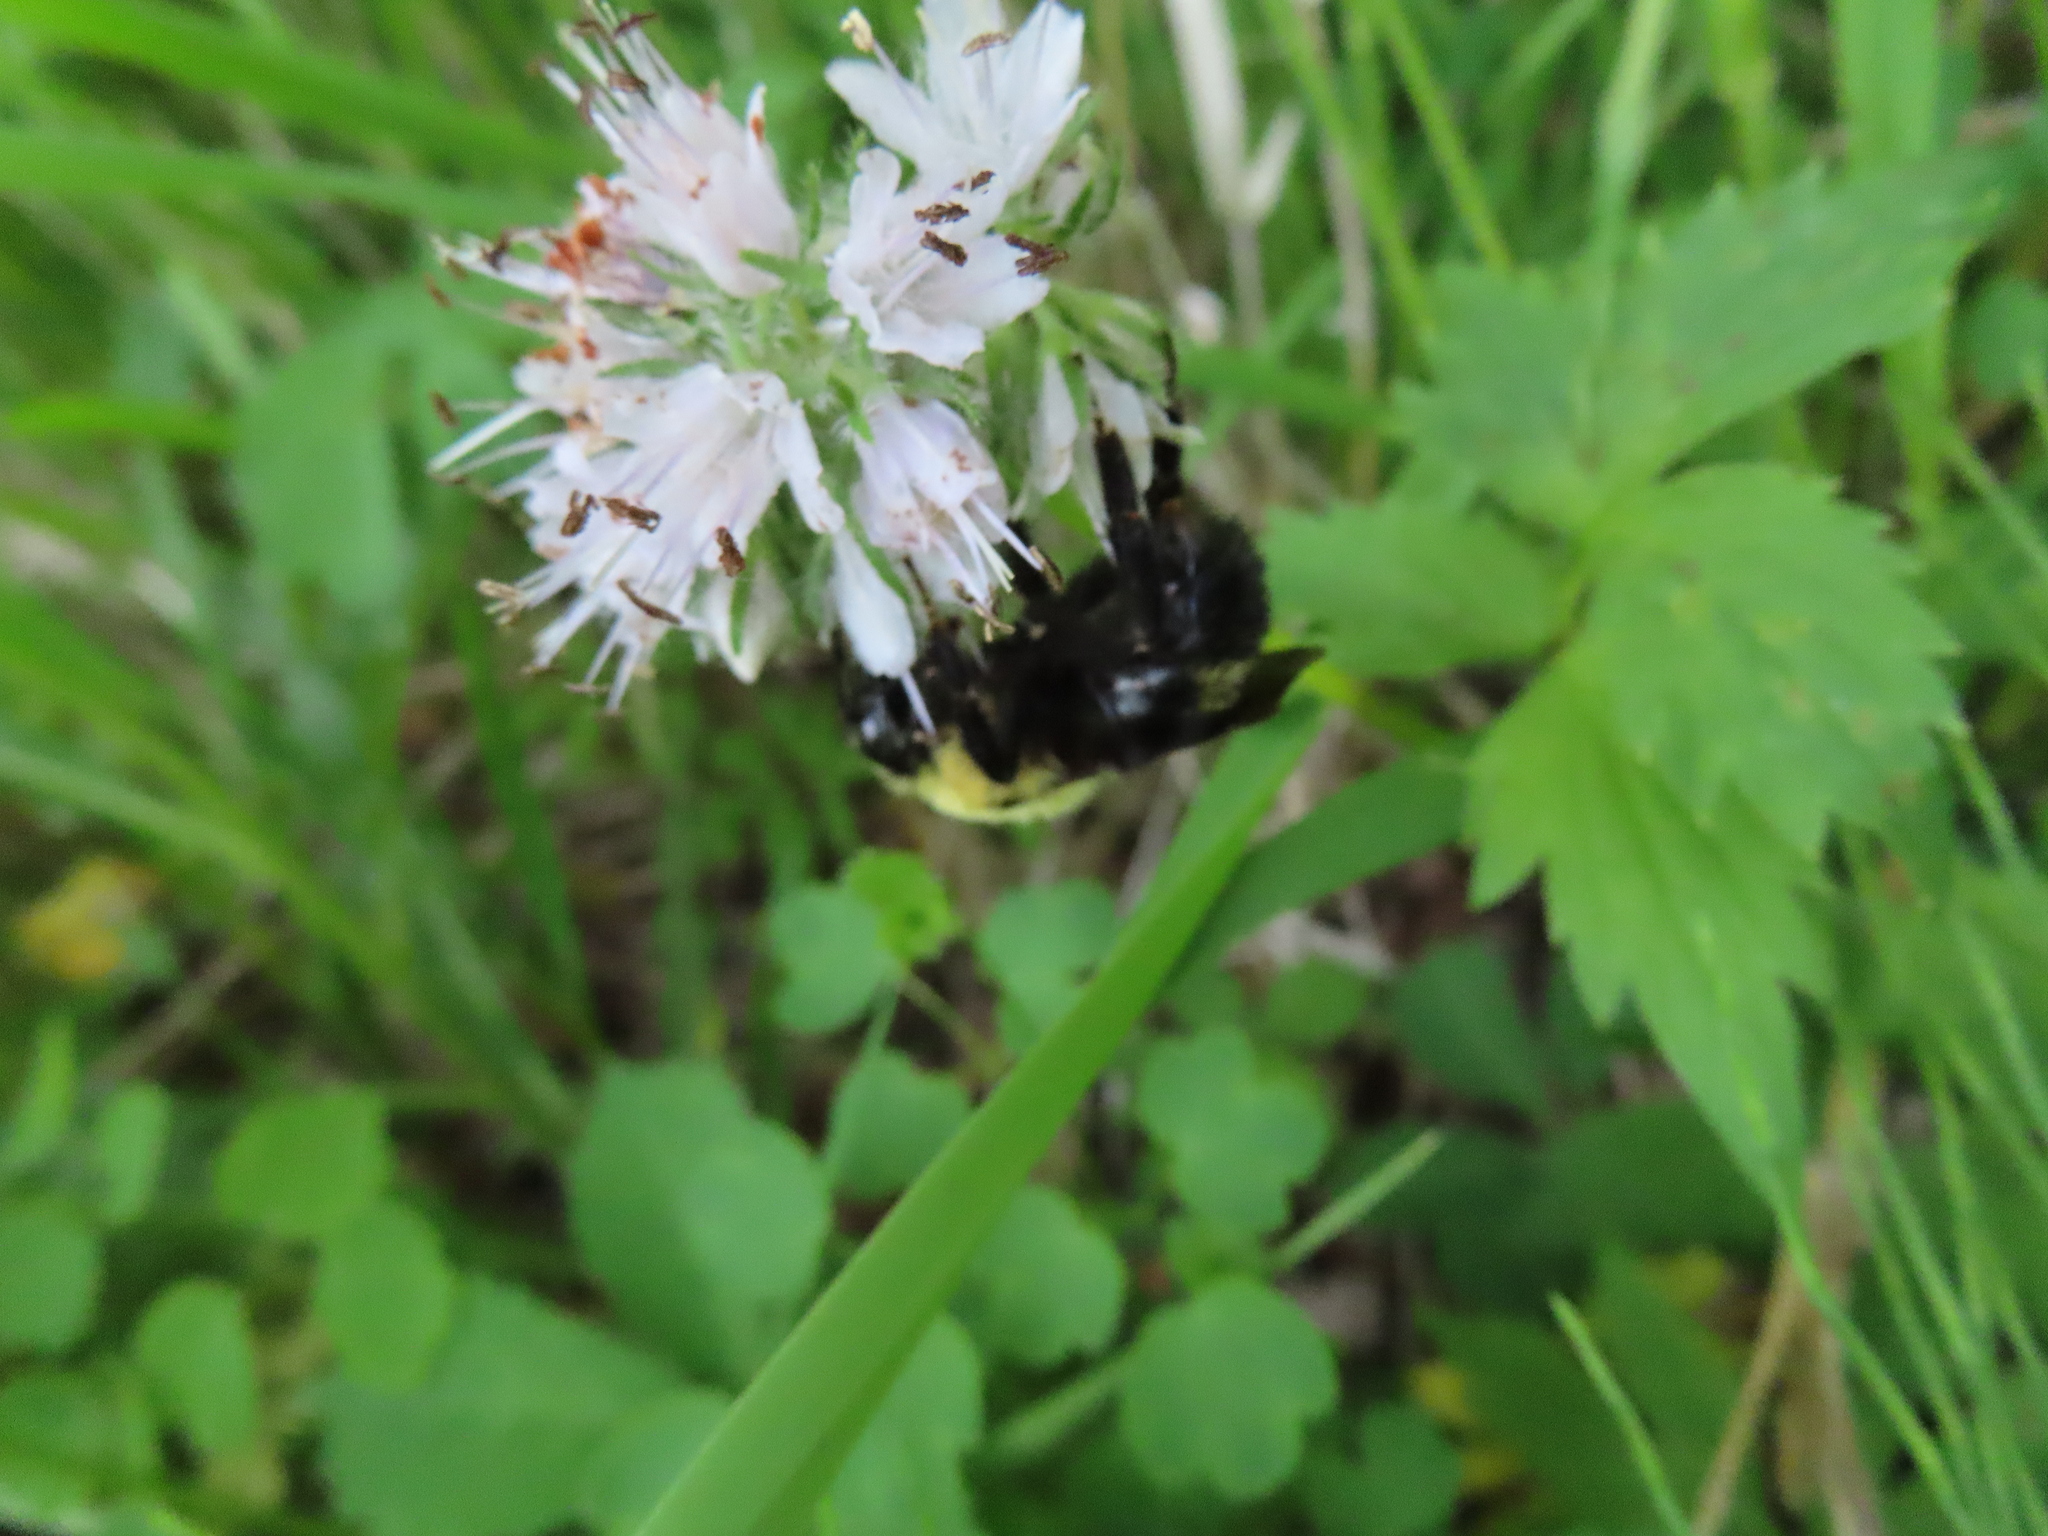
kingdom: Animalia
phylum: Arthropoda
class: Insecta
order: Hymenoptera
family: Apidae
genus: Bombus
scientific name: Bombus citrinus
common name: Lemon cuckoo bumble bee
